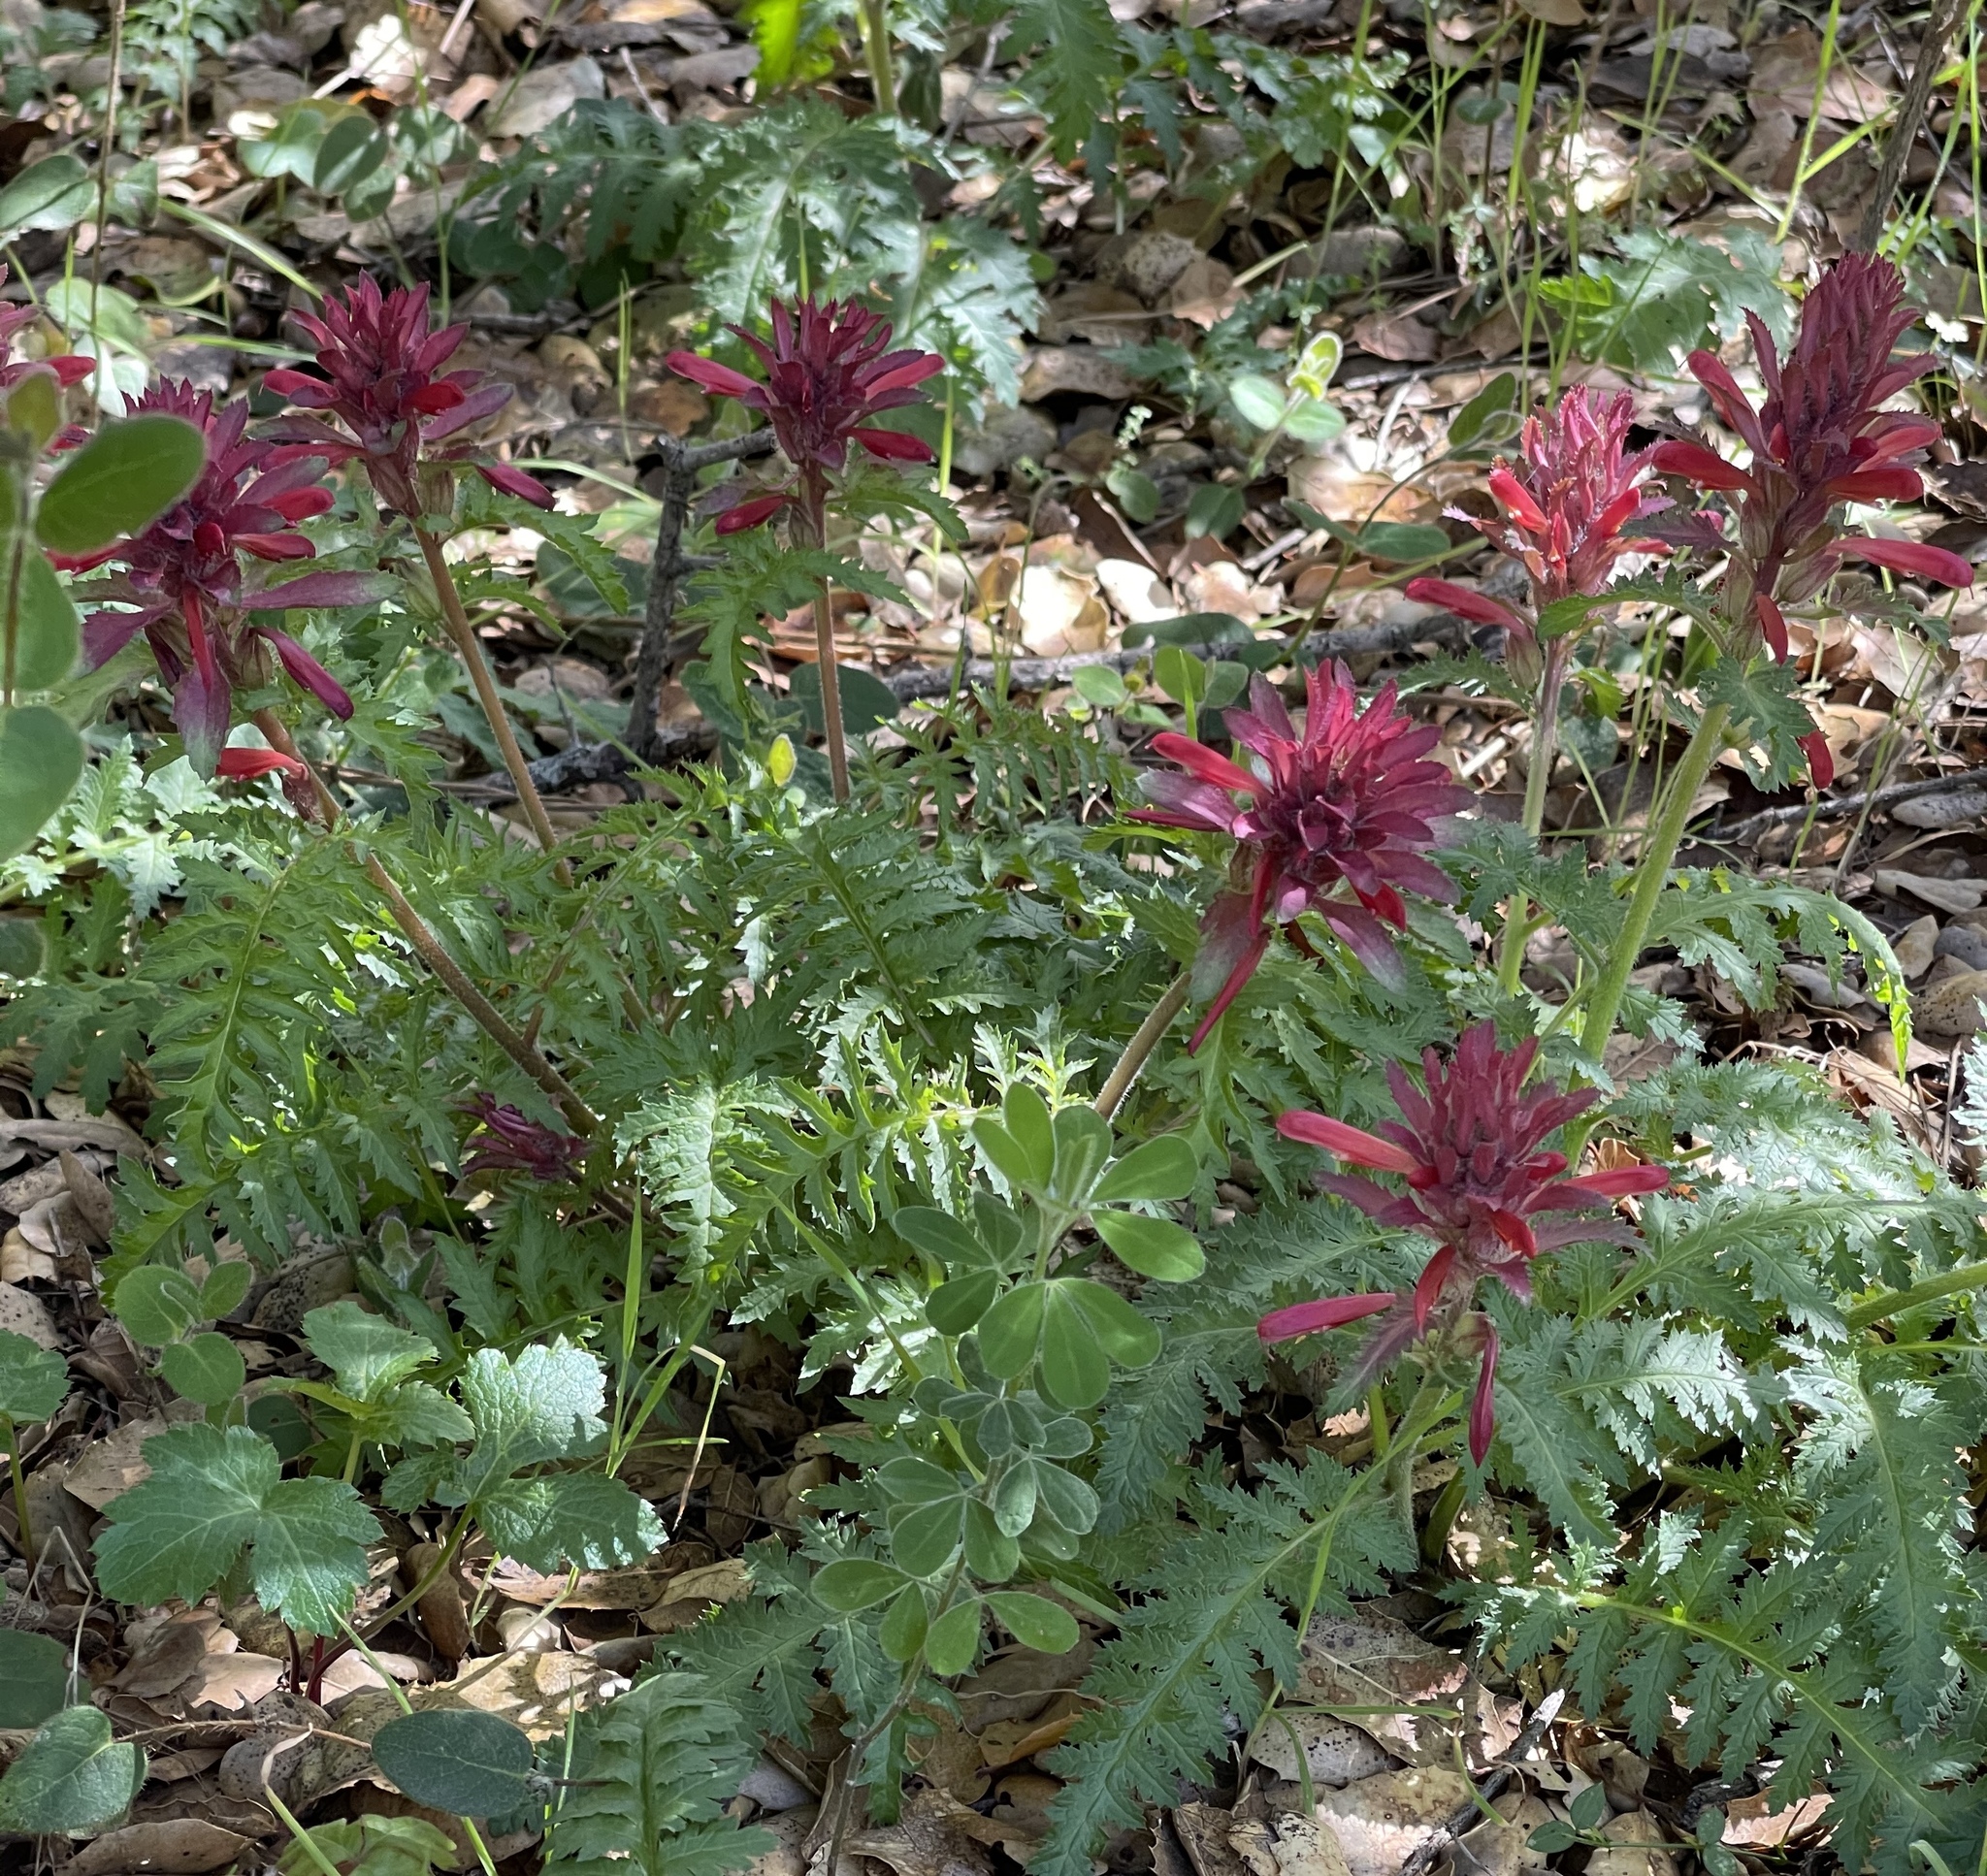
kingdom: Plantae
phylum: Tracheophyta
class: Magnoliopsida
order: Lamiales
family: Orobanchaceae
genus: Pedicularis
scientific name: Pedicularis densiflora
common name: Indian warrior
